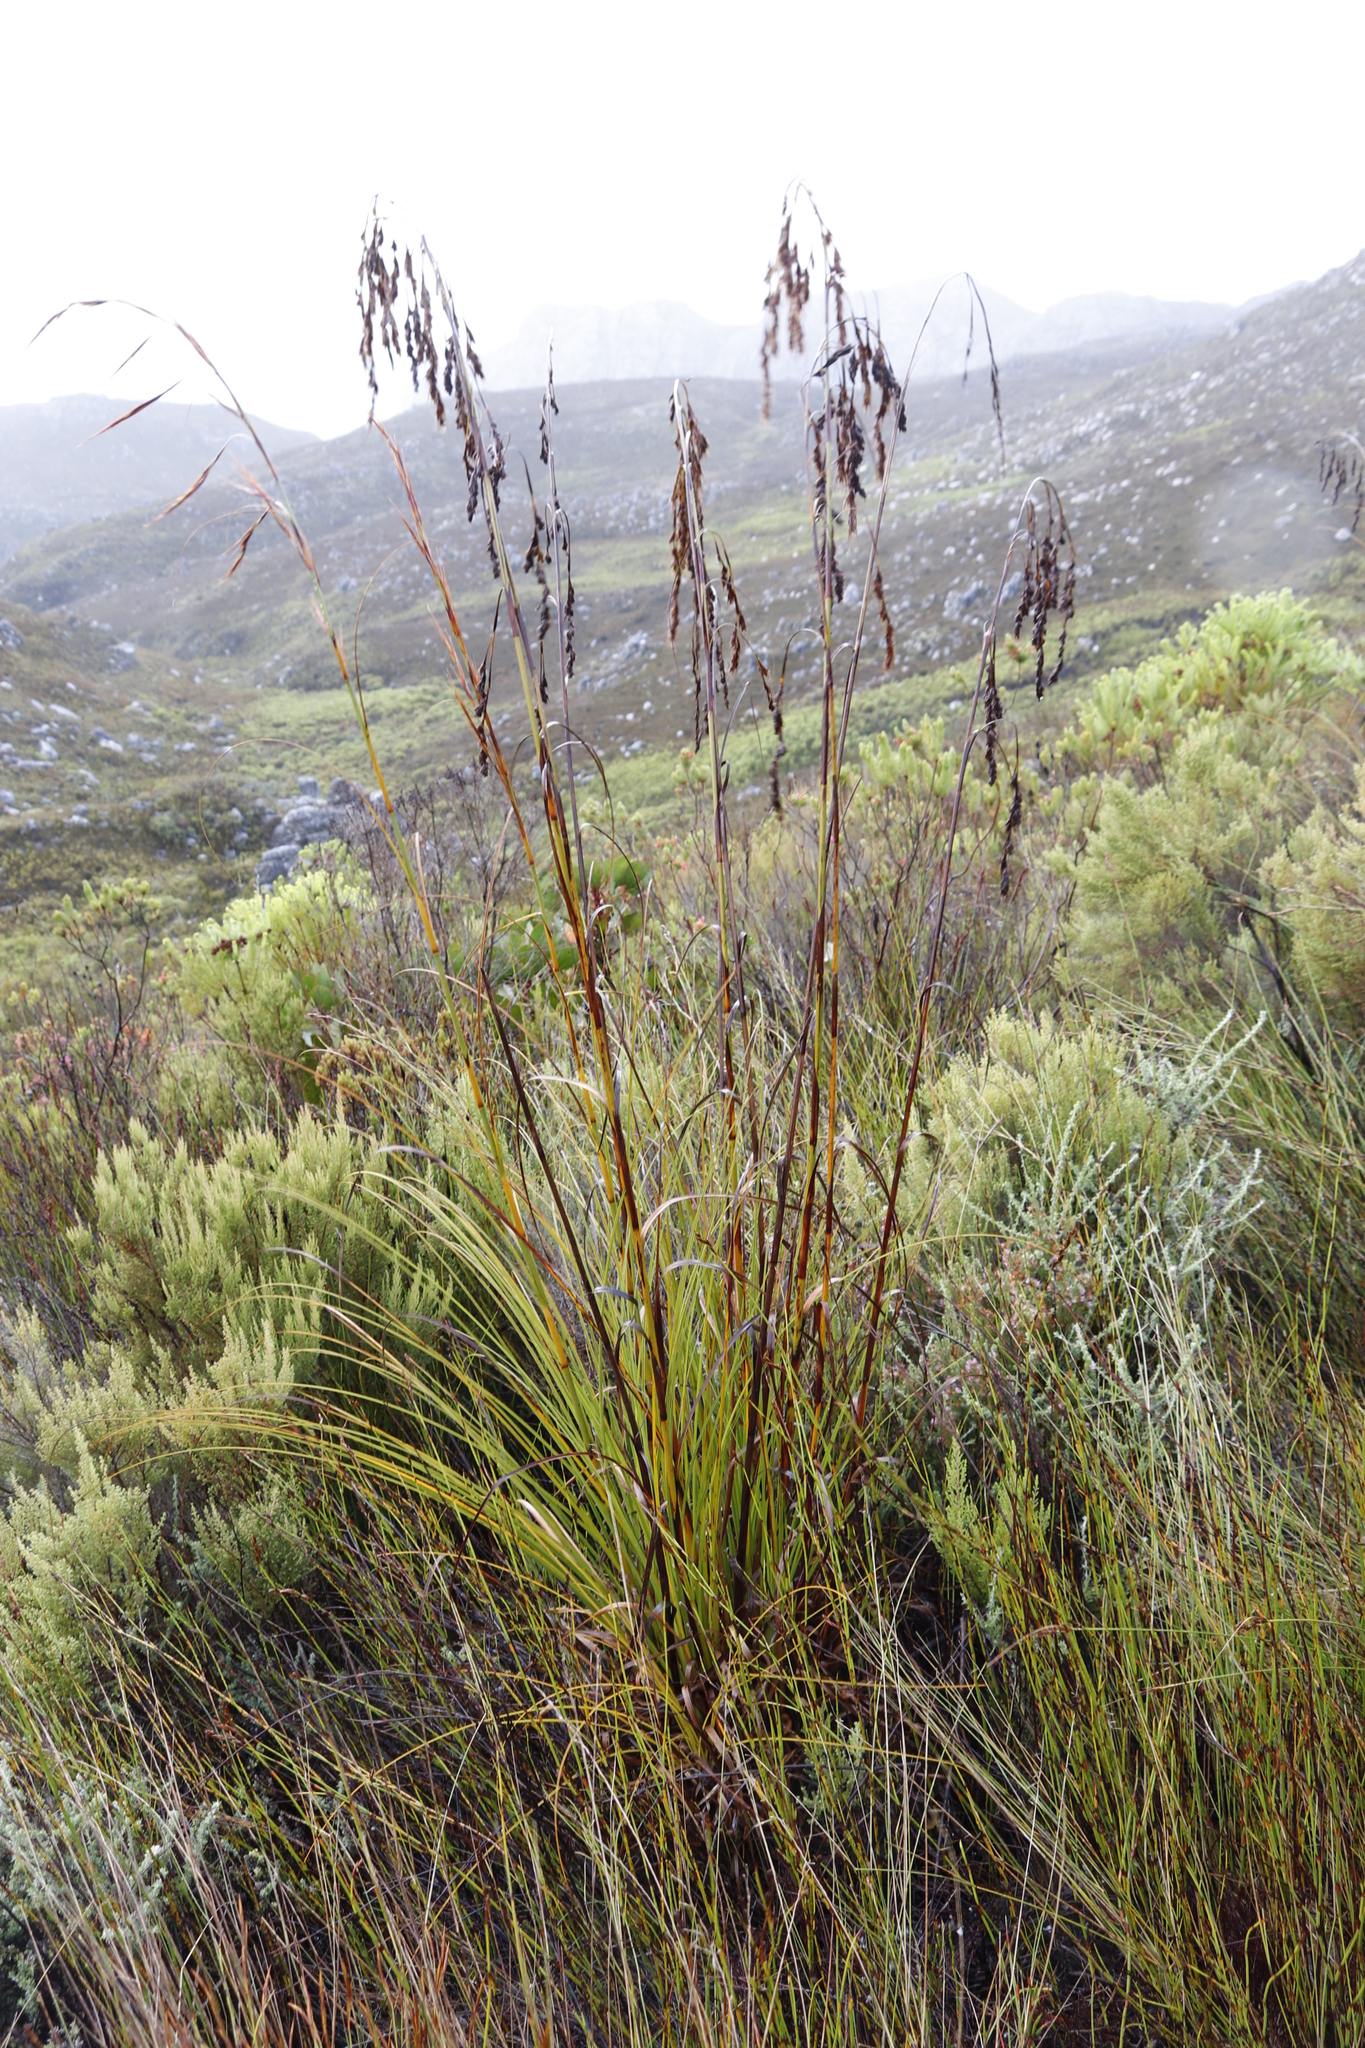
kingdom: Plantae
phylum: Tracheophyta
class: Liliopsida
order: Poales
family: Cyperaceae
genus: Tetraria
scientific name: Tetraria involucrata
